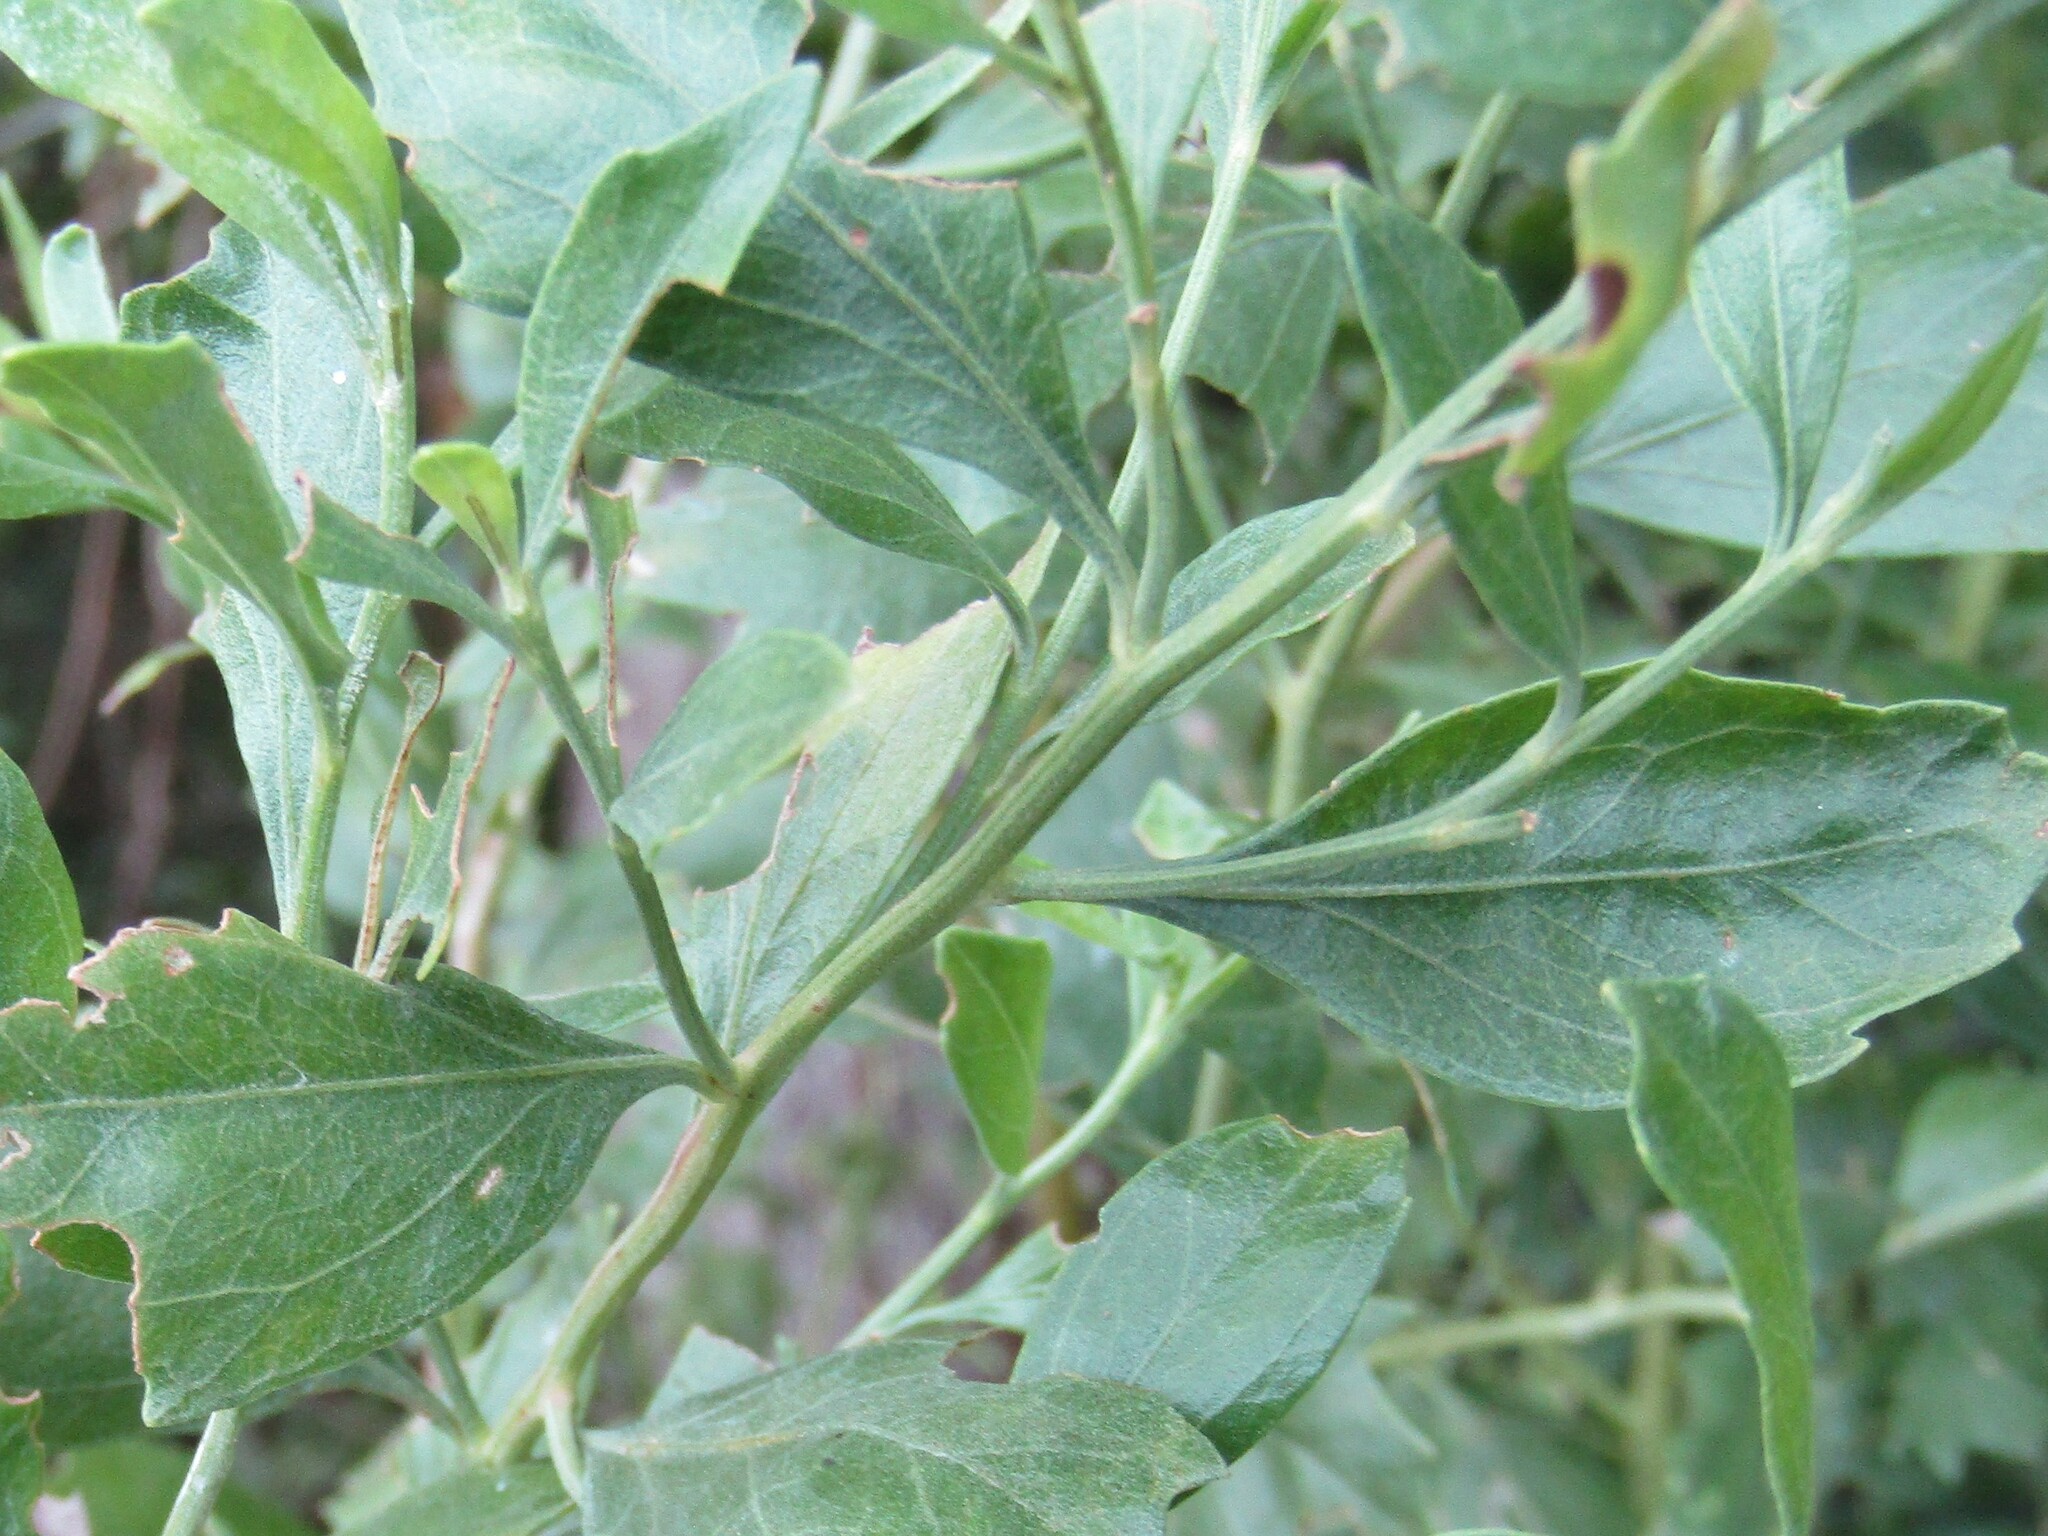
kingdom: Plantae
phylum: Tracheophyta
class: Magnoliopsida
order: Asterales
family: Asteraceae
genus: Baccharis
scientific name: Baccharis halimifolia
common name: Eastern baccharis
